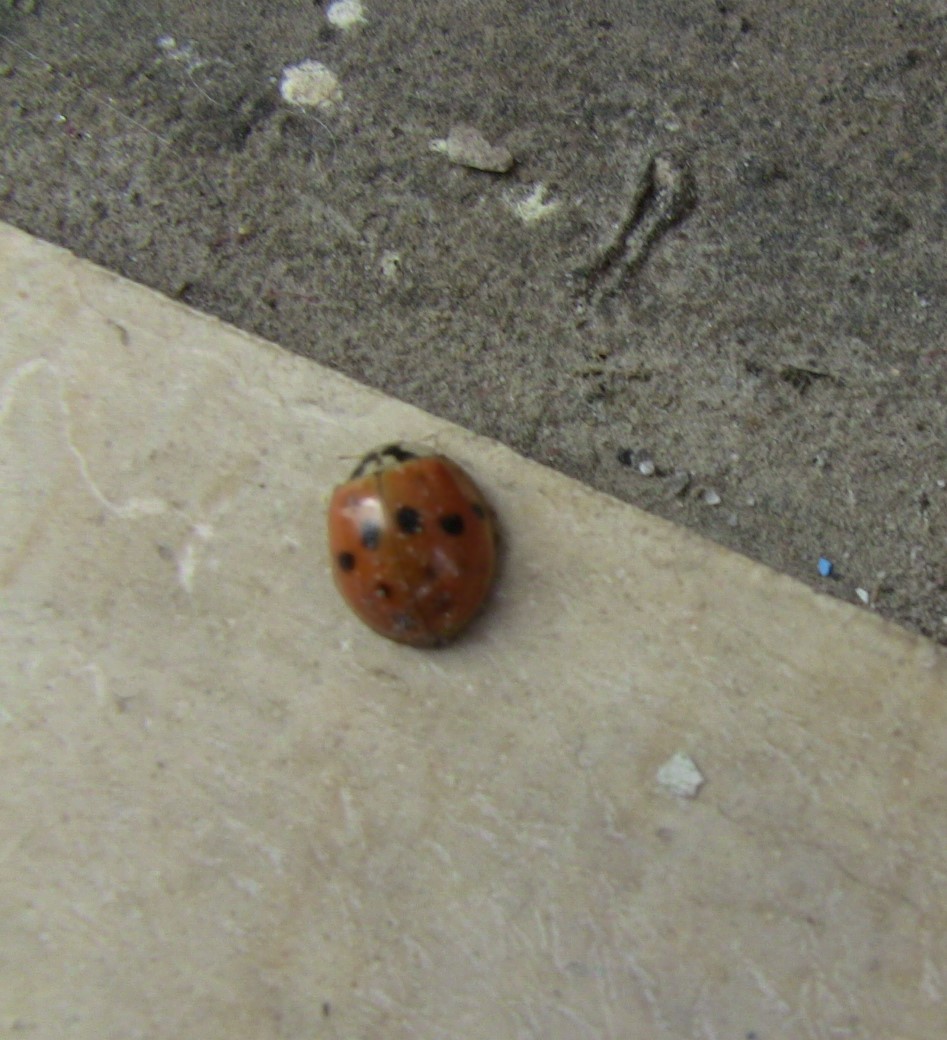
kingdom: Animalia
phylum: Arthropoda
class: Insecta
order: Coleoptera
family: Coccinellidae
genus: Harmonia
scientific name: Harmonia axyridis
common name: Harlequin ladybird
